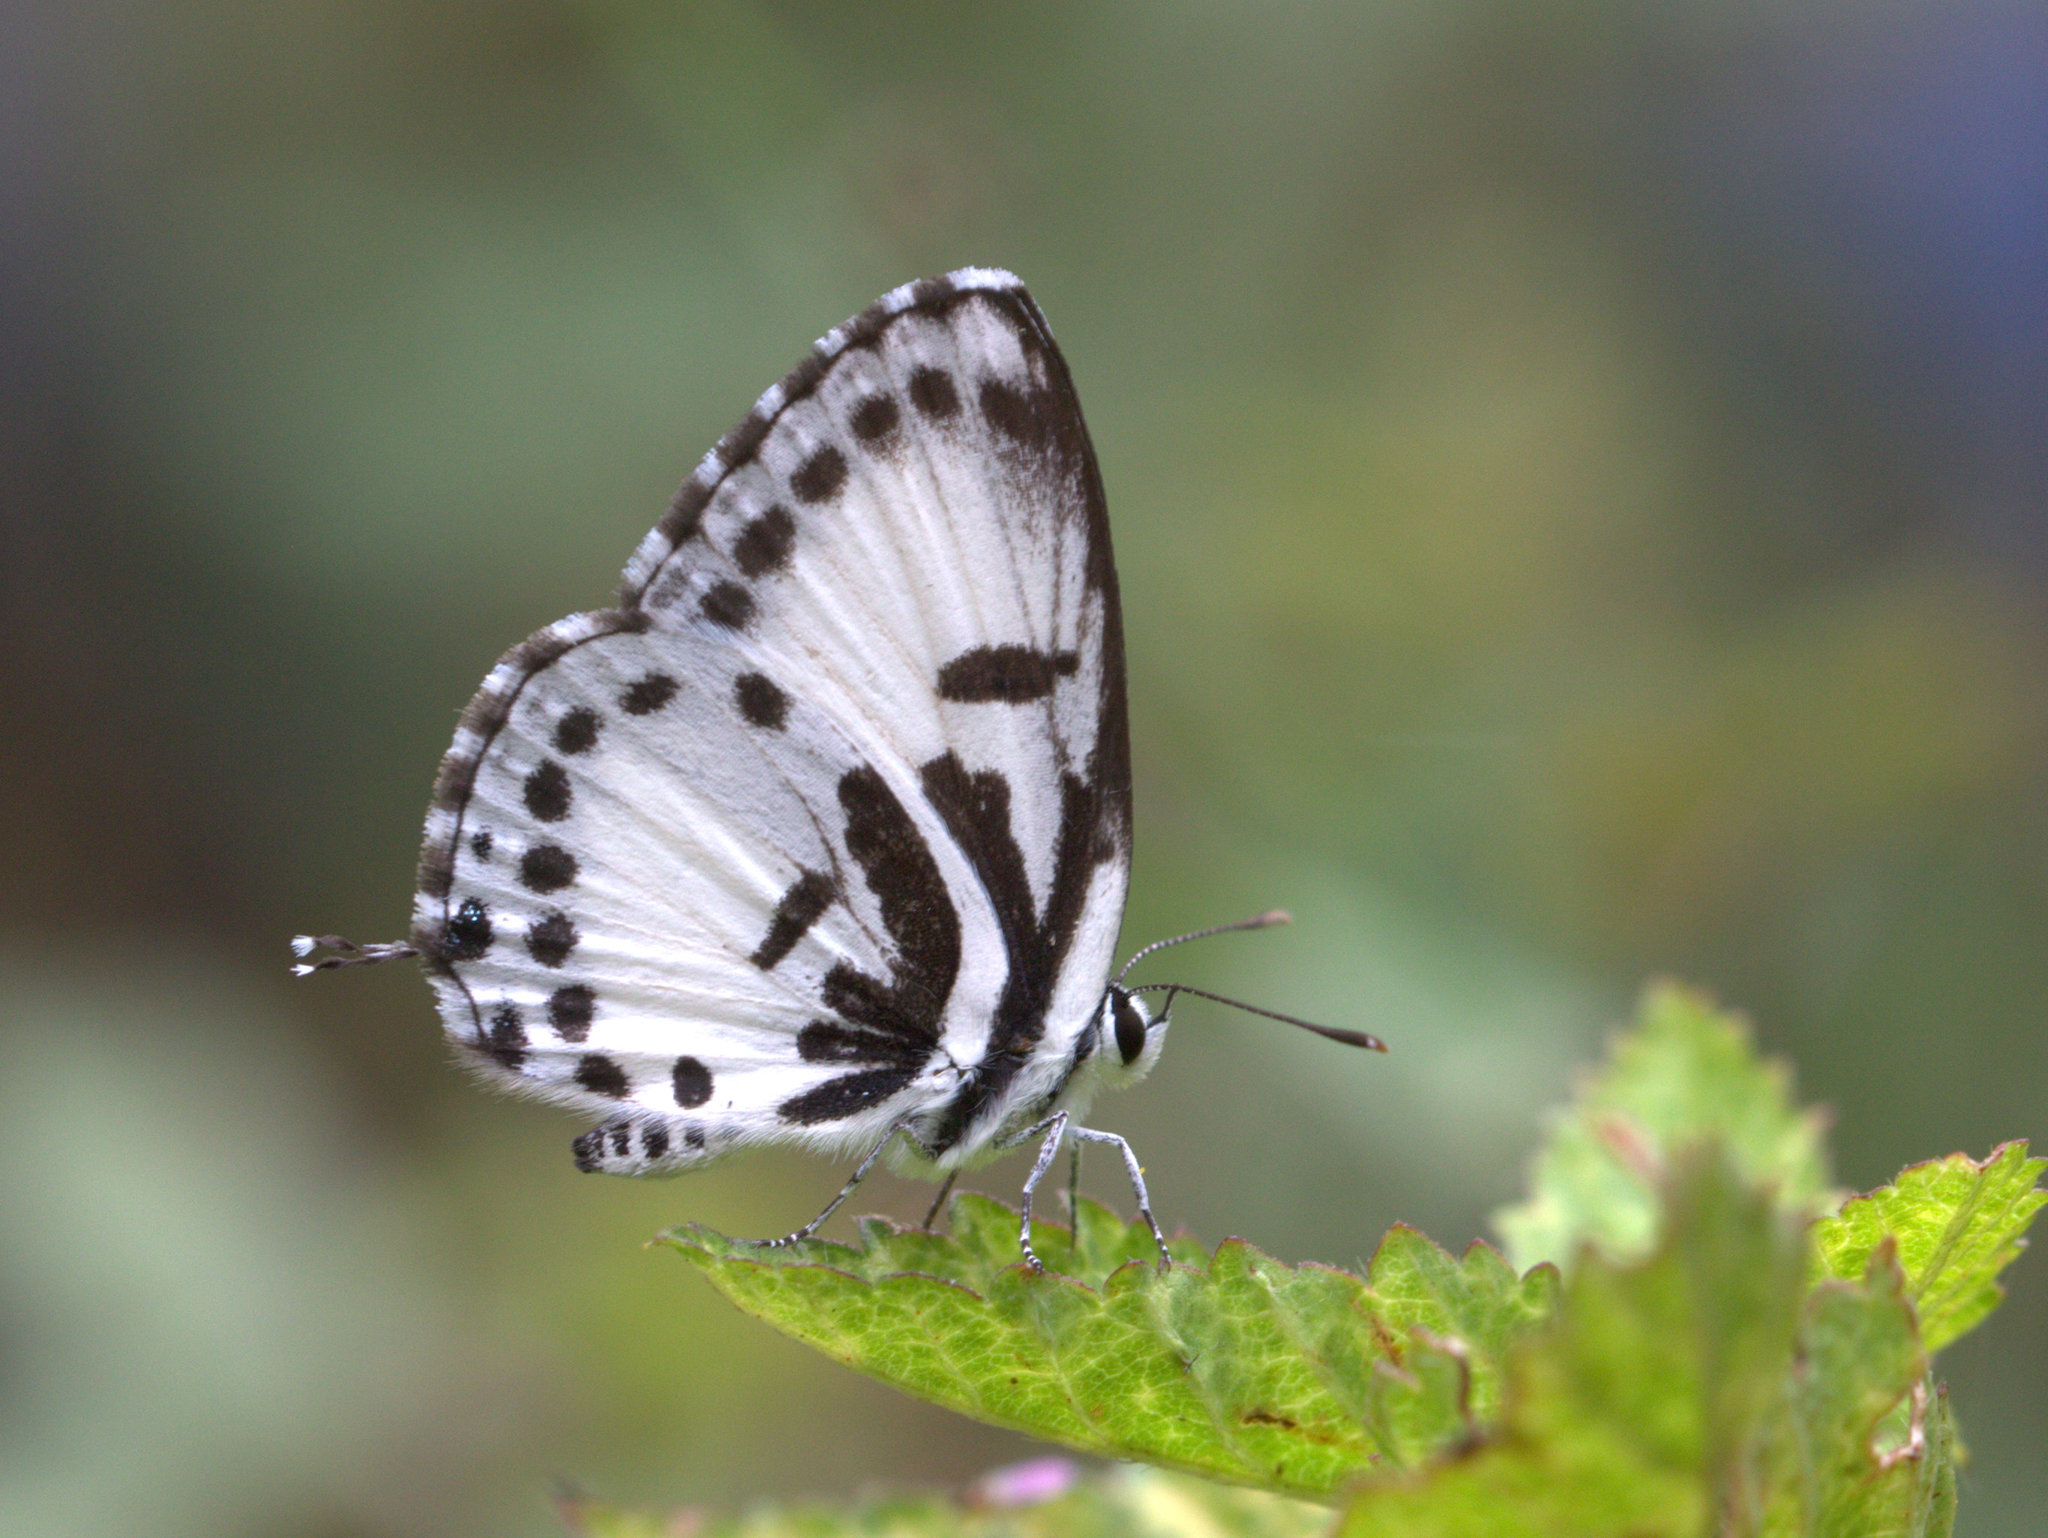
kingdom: Animalia
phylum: Arthropoda
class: Insecta
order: Lepidoptera
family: Lycaenidae
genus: Castalius
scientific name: Castalius rosimon
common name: Common pierrot
